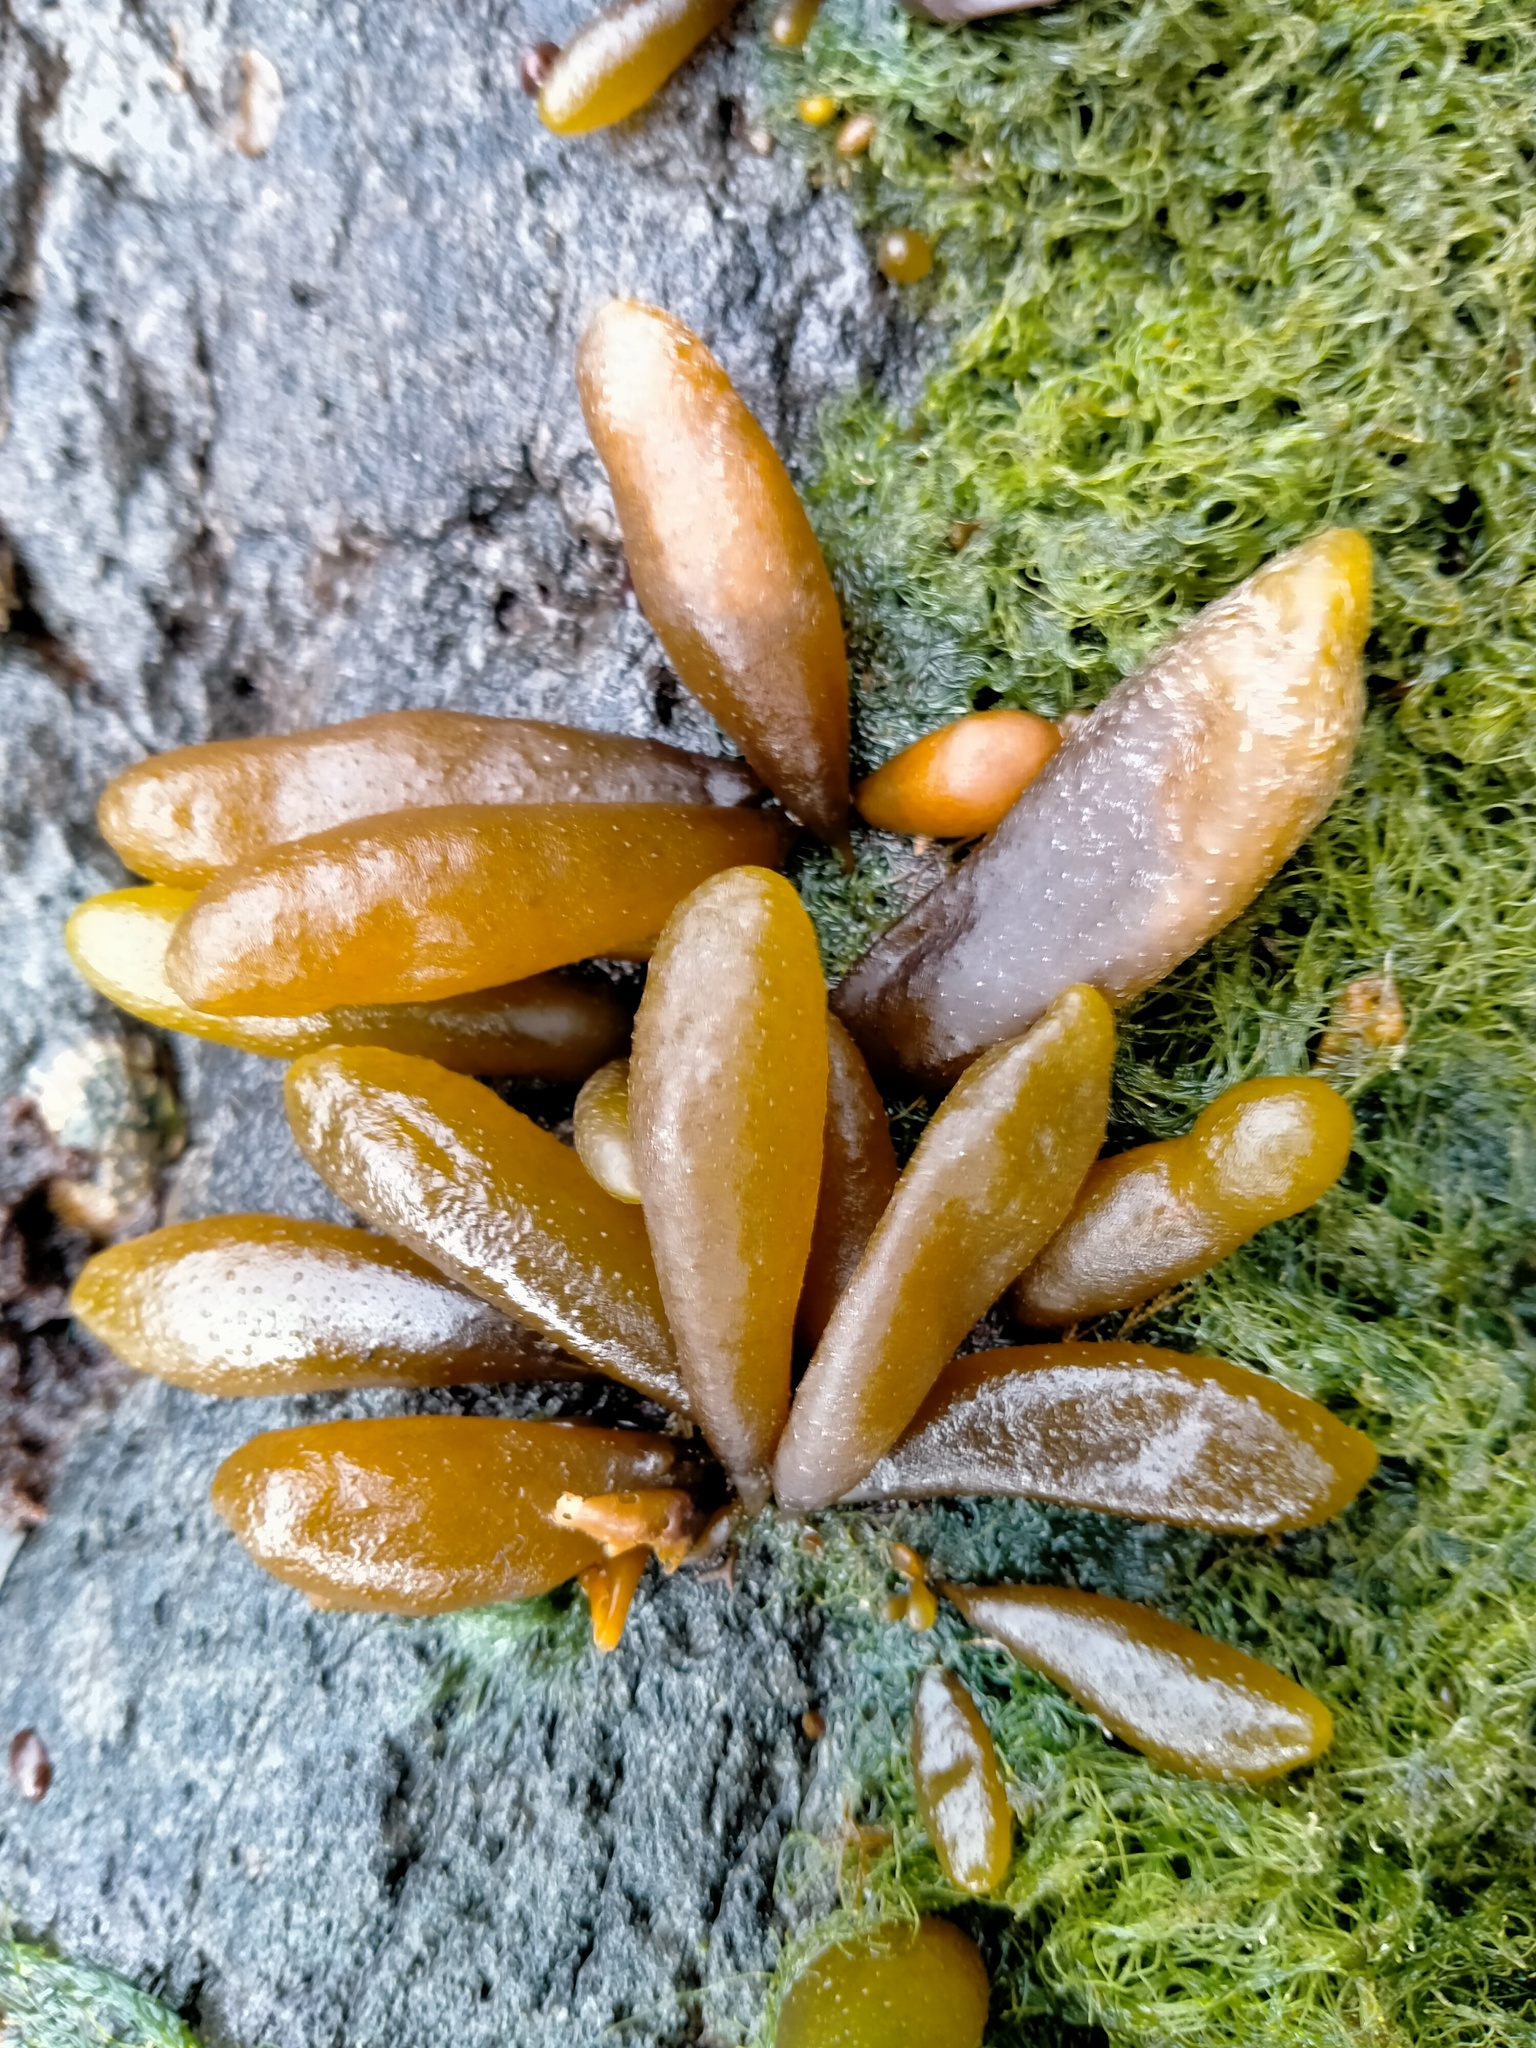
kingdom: Chromista
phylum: Ochrophyta
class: Phaeophyceae
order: Ectocarpales
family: Adenocystaceae
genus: Adenocystis
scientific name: Adenocystis utricularis
